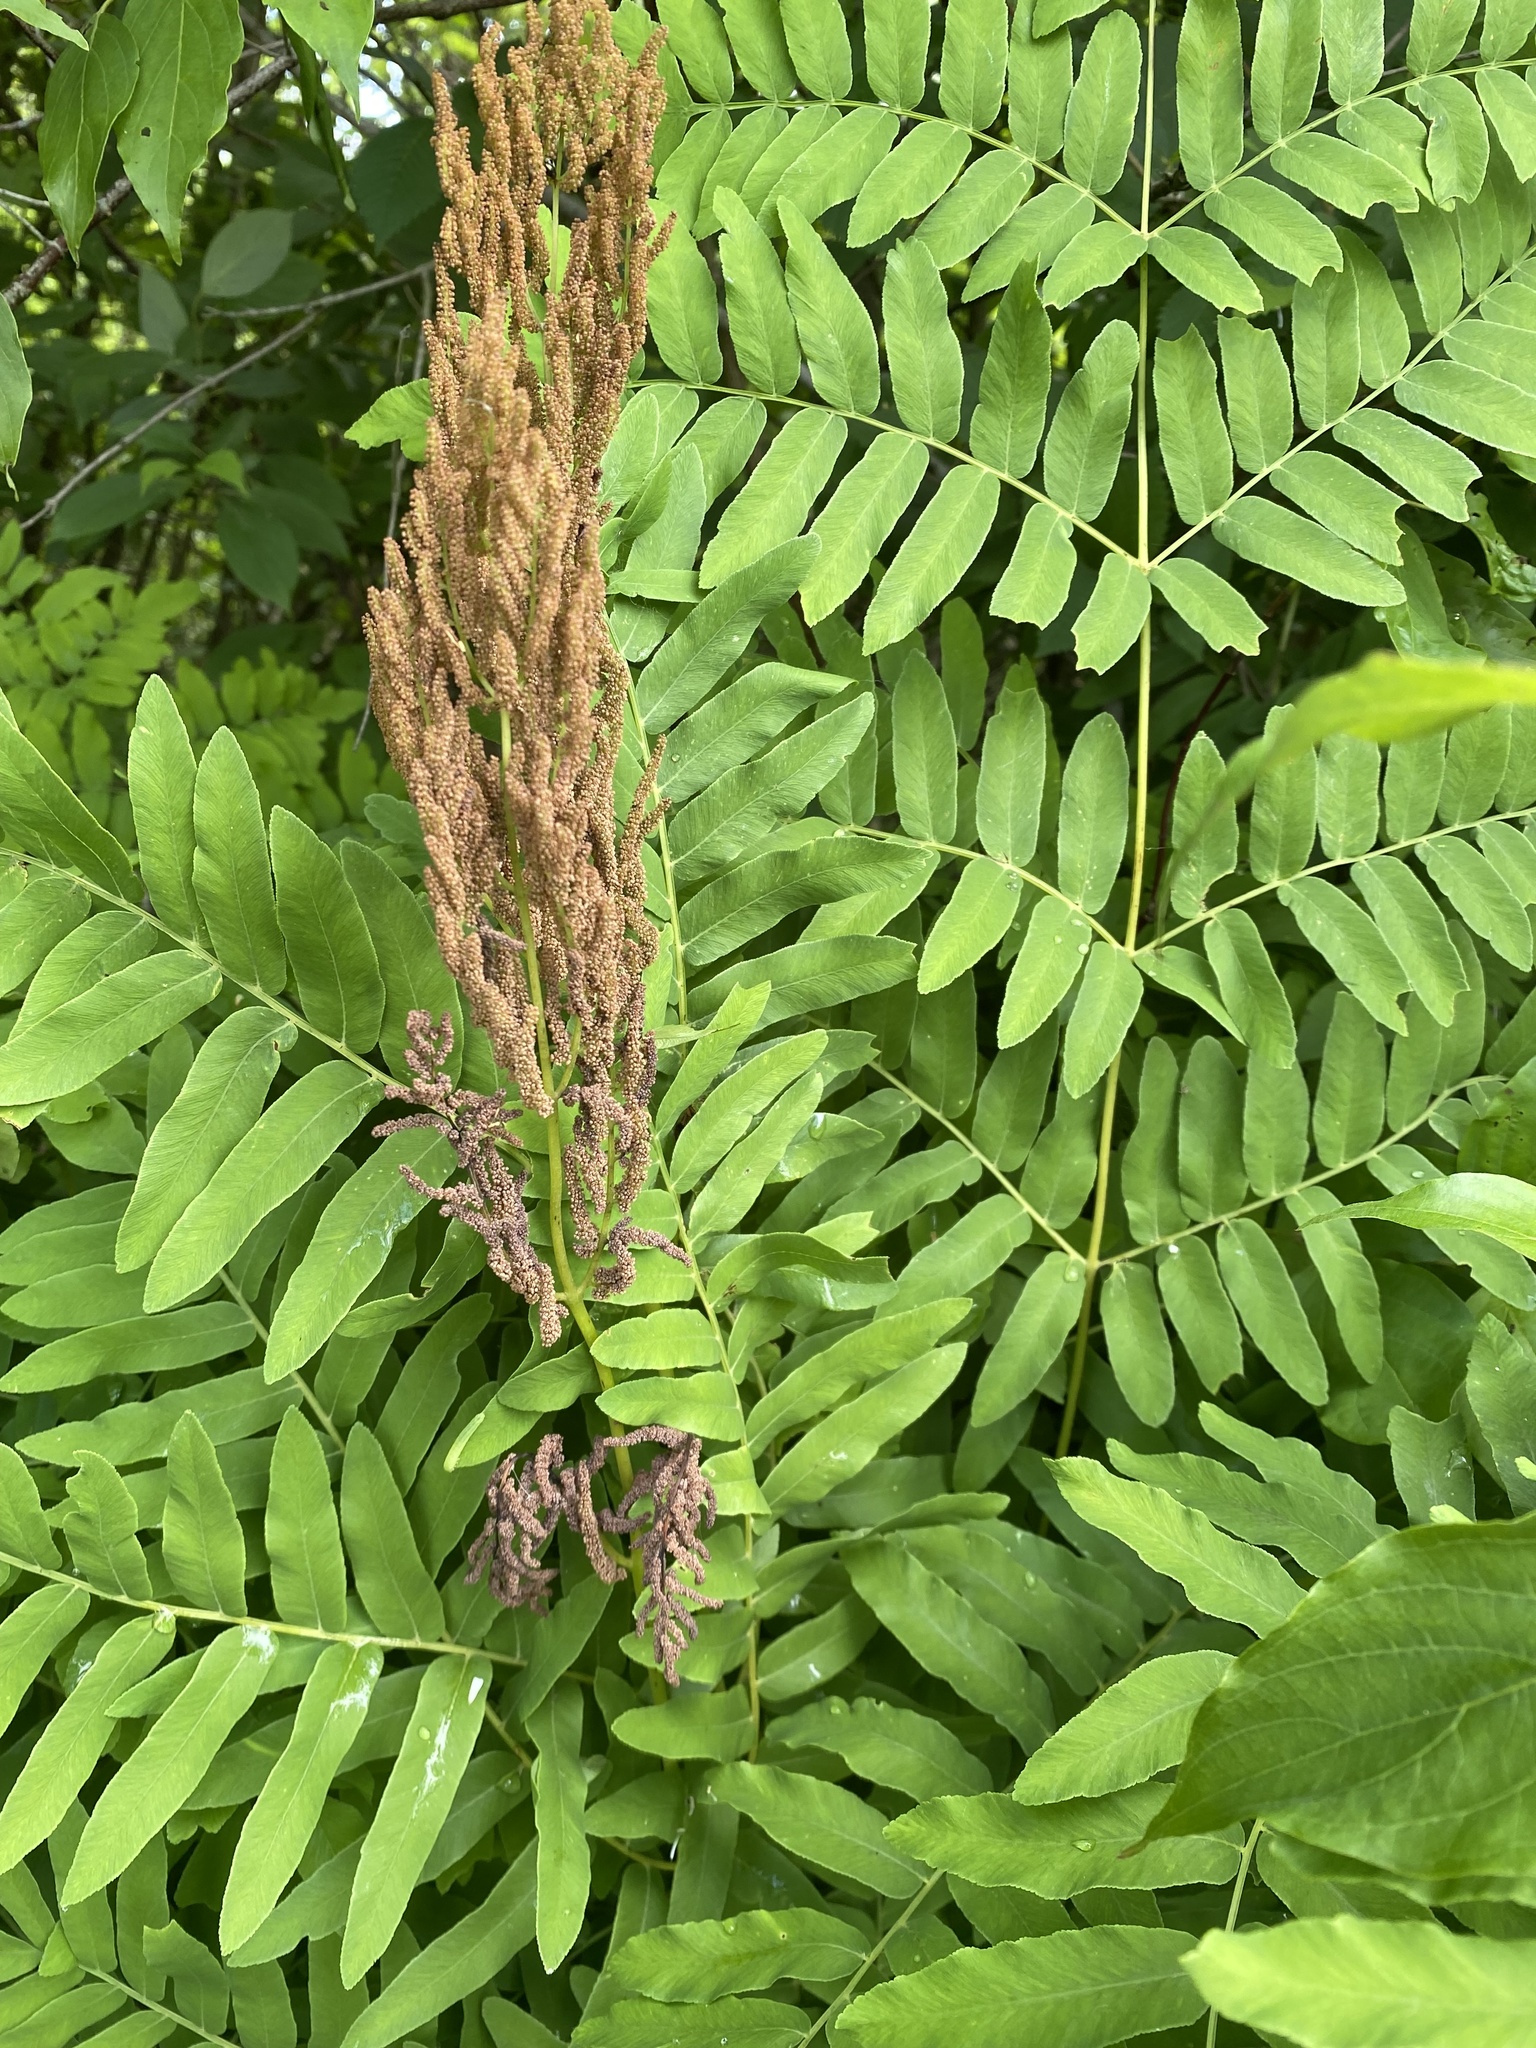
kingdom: Plantae
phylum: Tracheophyta
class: Polypodiopsida
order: Osmundales
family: Osmundaceae
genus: Osmunda
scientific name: Osmunda spectabilis
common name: American royal fern
